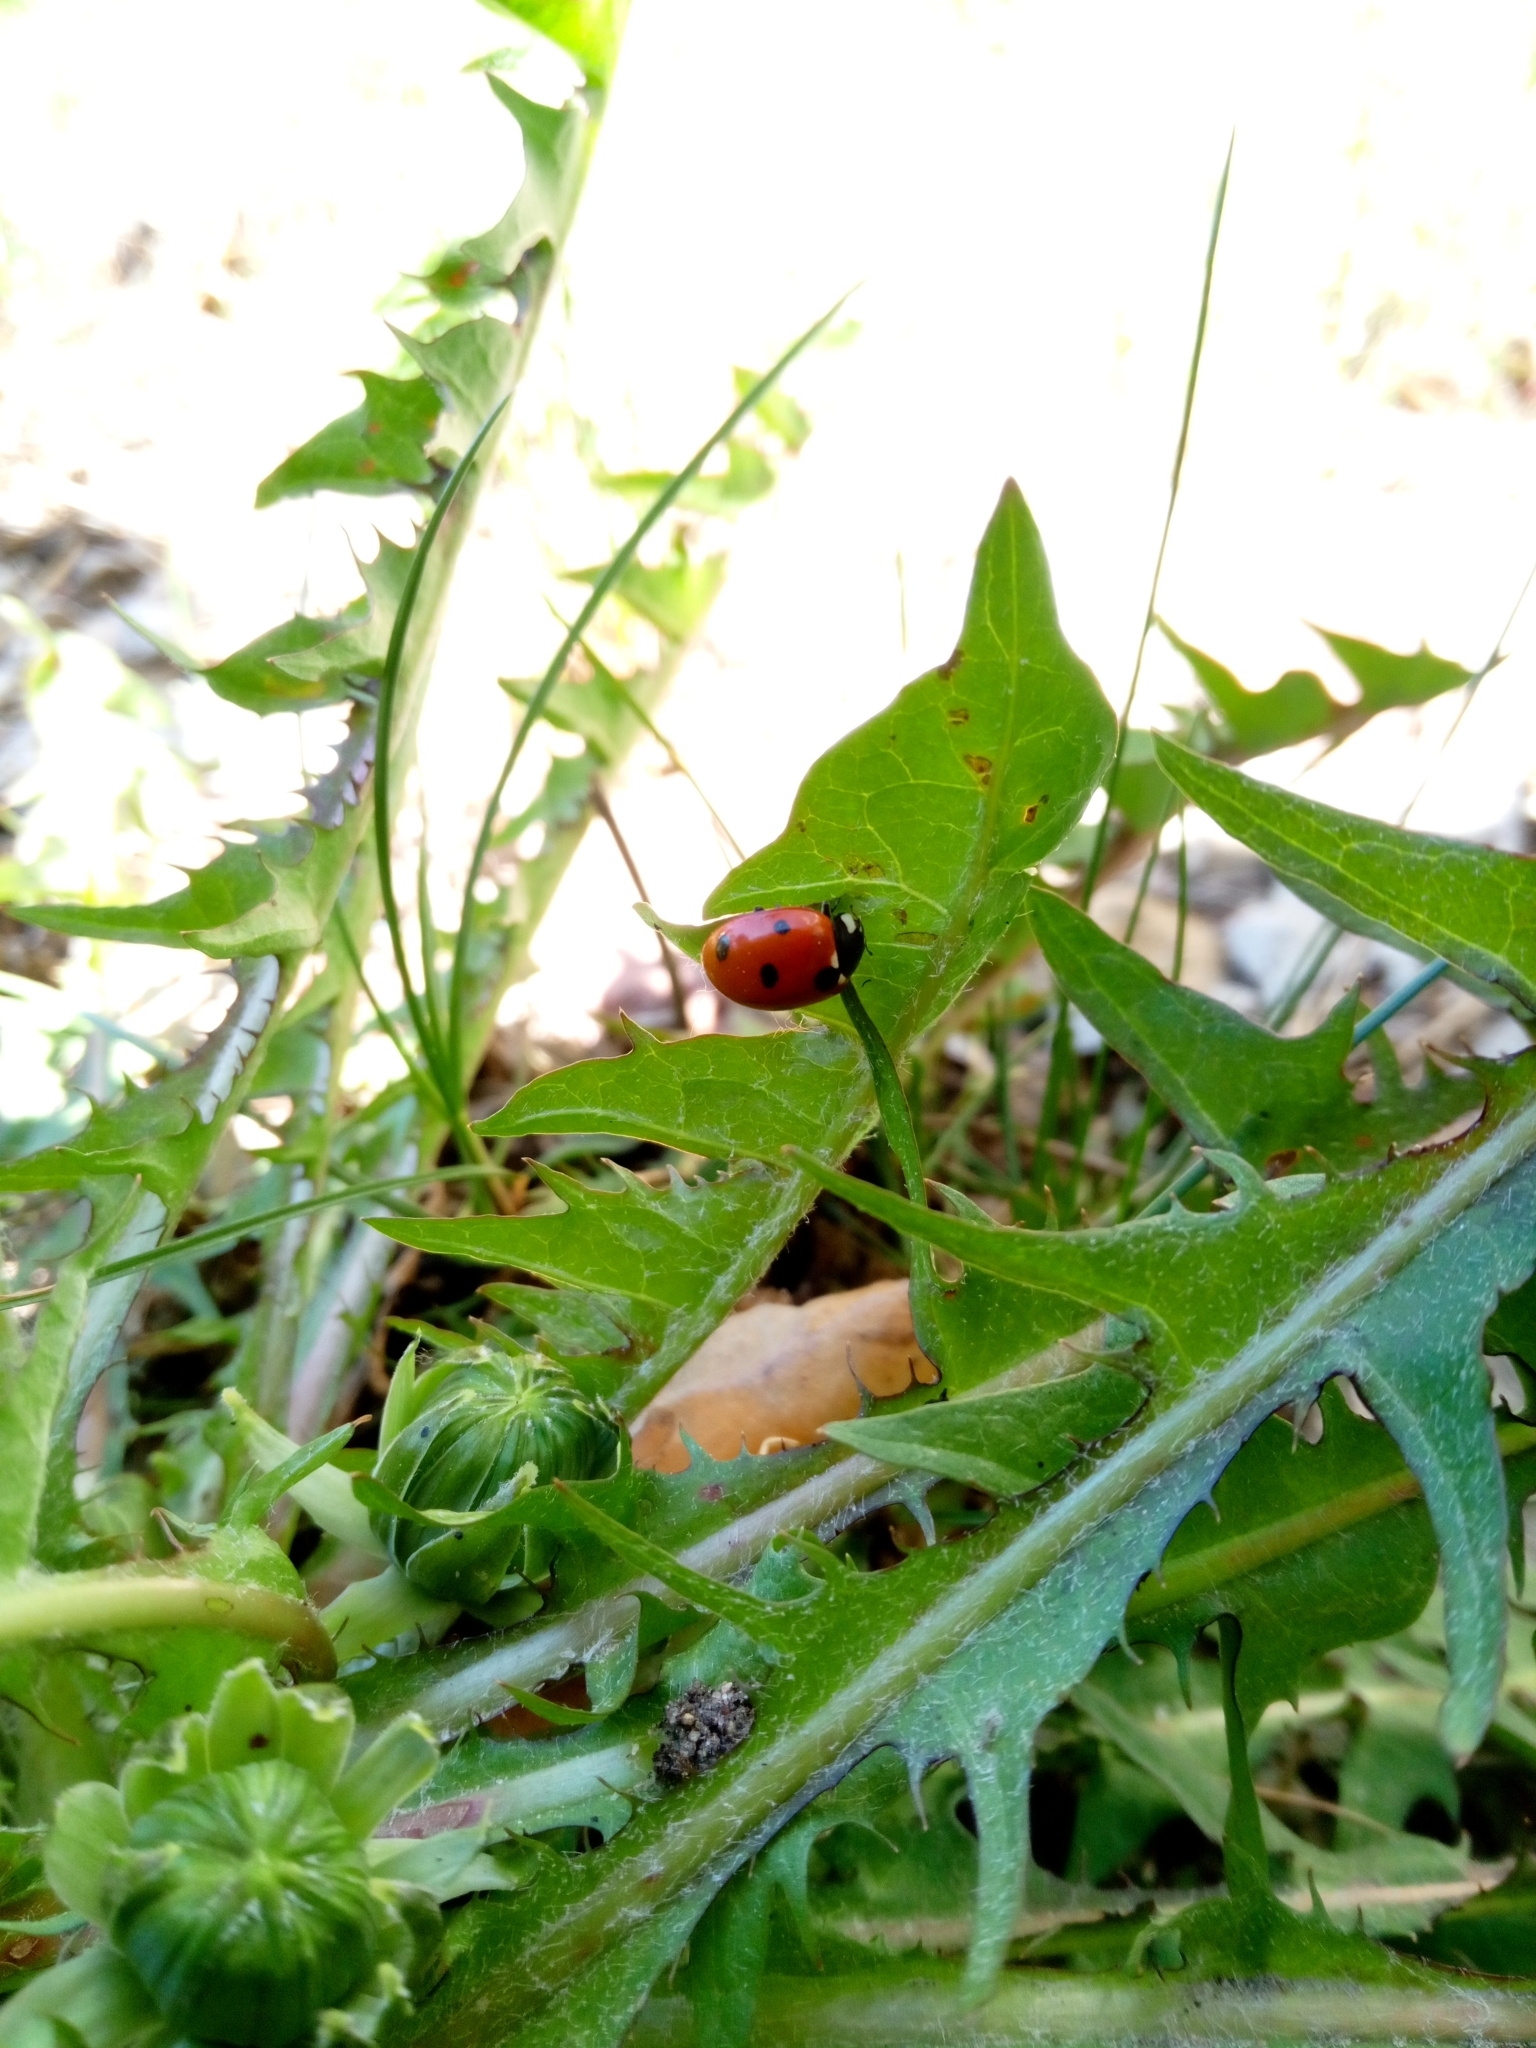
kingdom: Animalia
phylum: Arthropoda
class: Insecta
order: Coleoptera
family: Coccinellidae
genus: Coccinella
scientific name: Coccinella septempunctata
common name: Sevenspotted lady beetle
